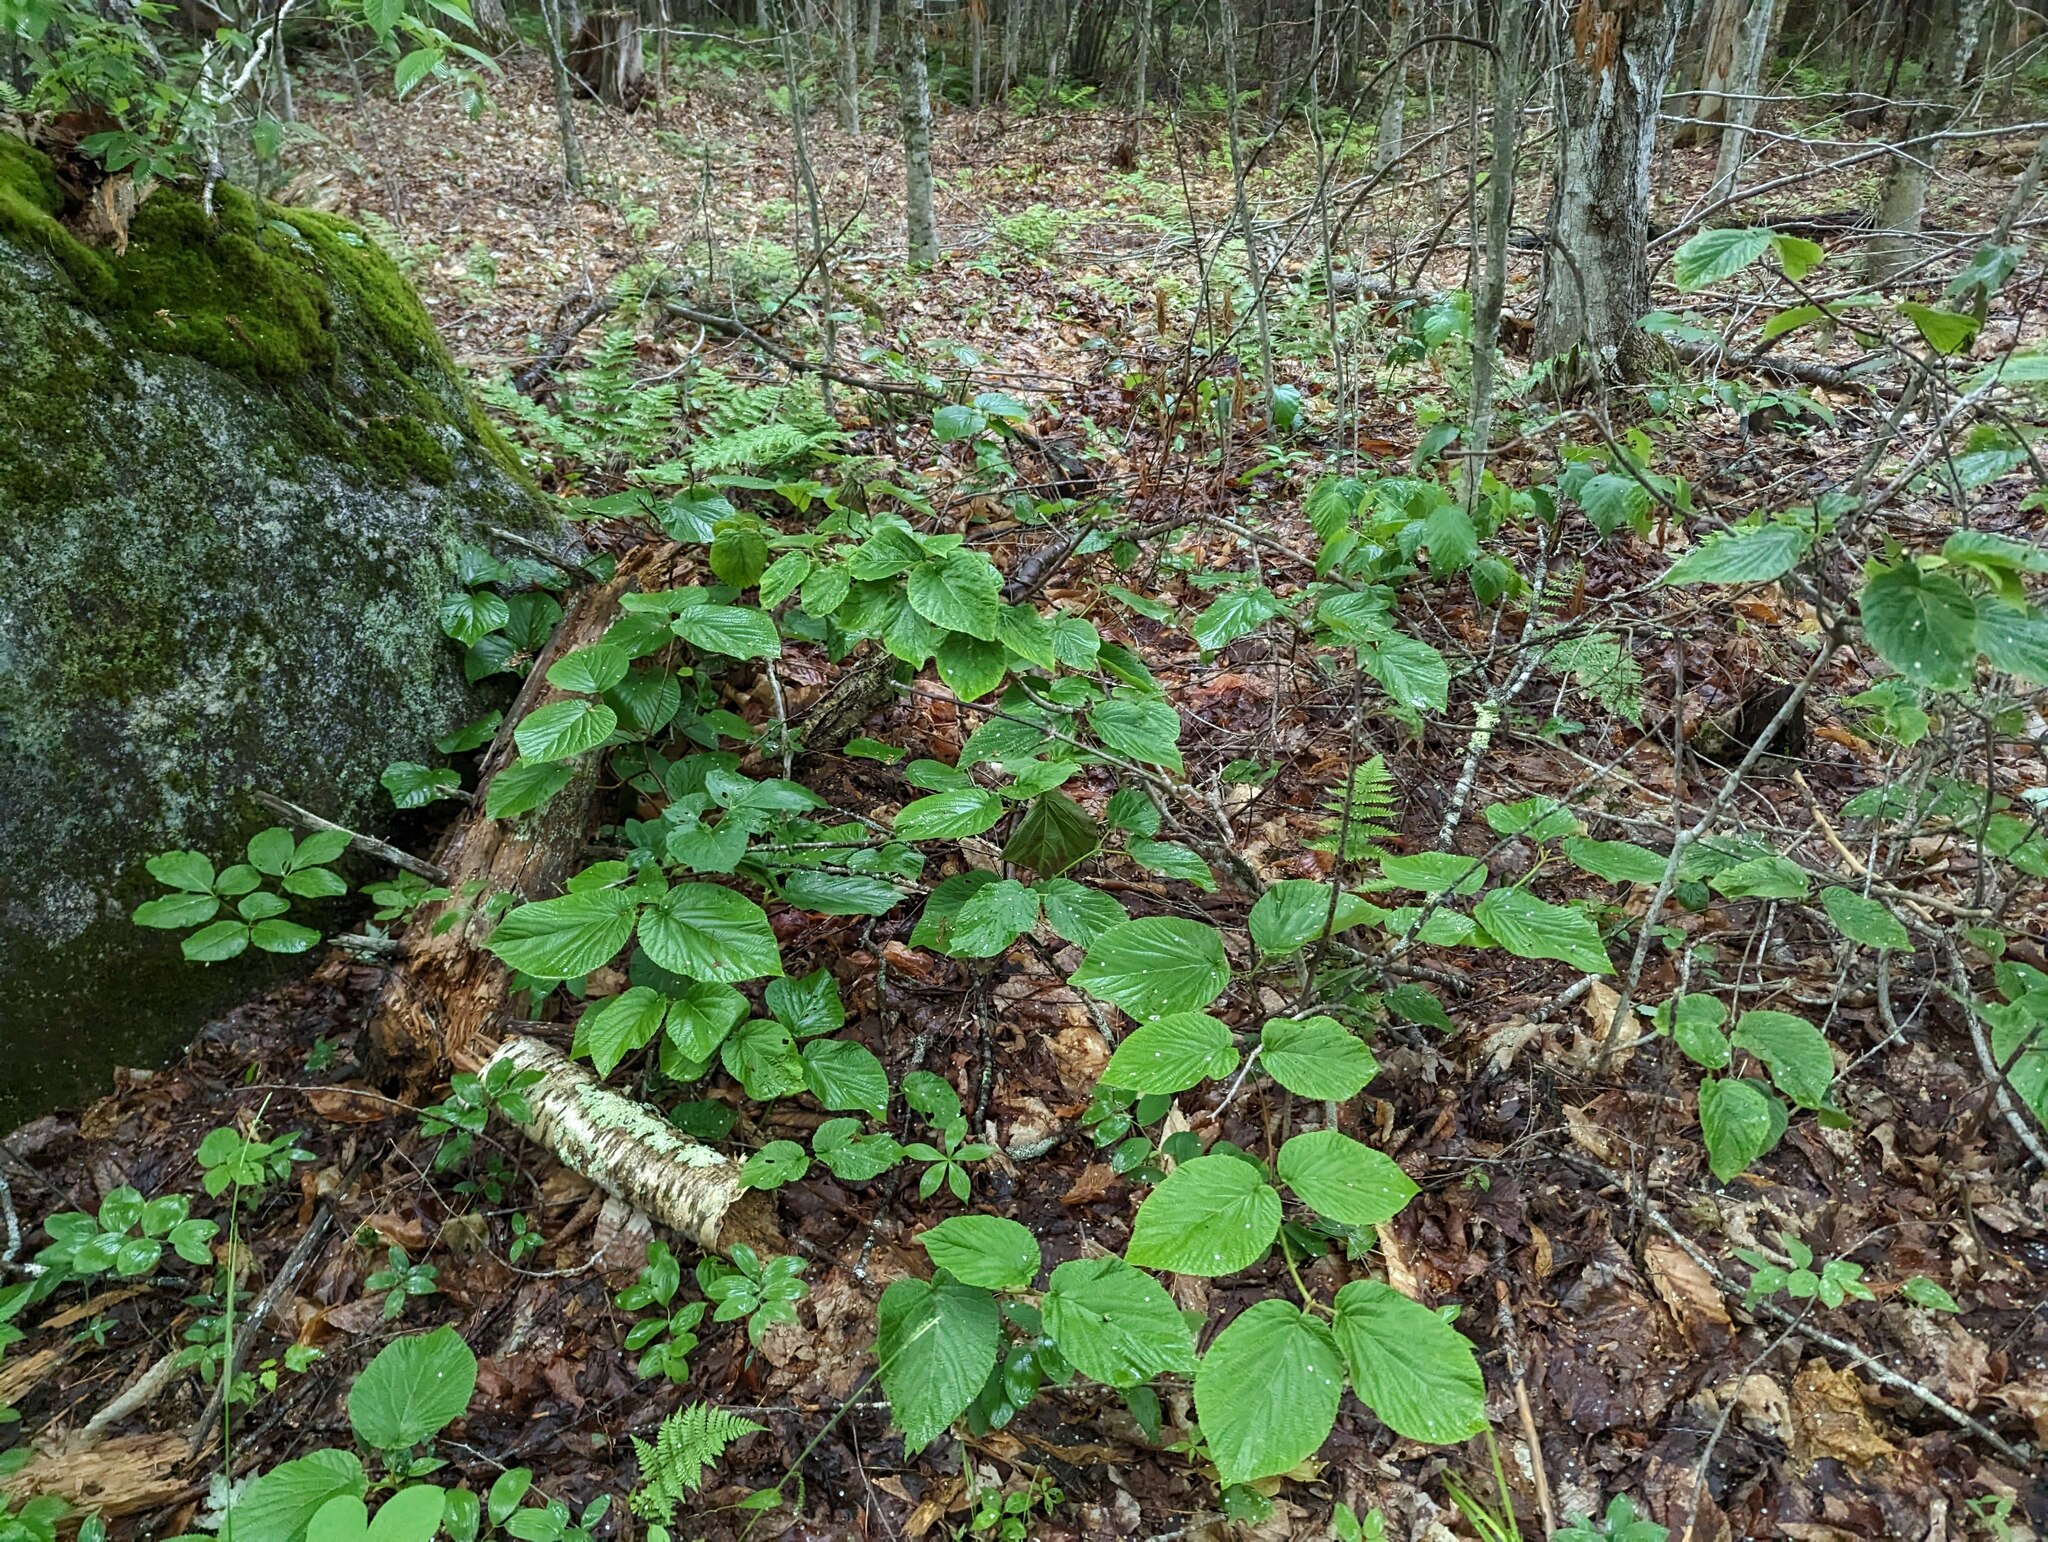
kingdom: Plantae
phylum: Tracheophyta
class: Magnoliopsida
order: Dipsacales
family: Viburnaceae
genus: Viburnum
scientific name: Viburnum lantanoides
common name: Hobblebush
